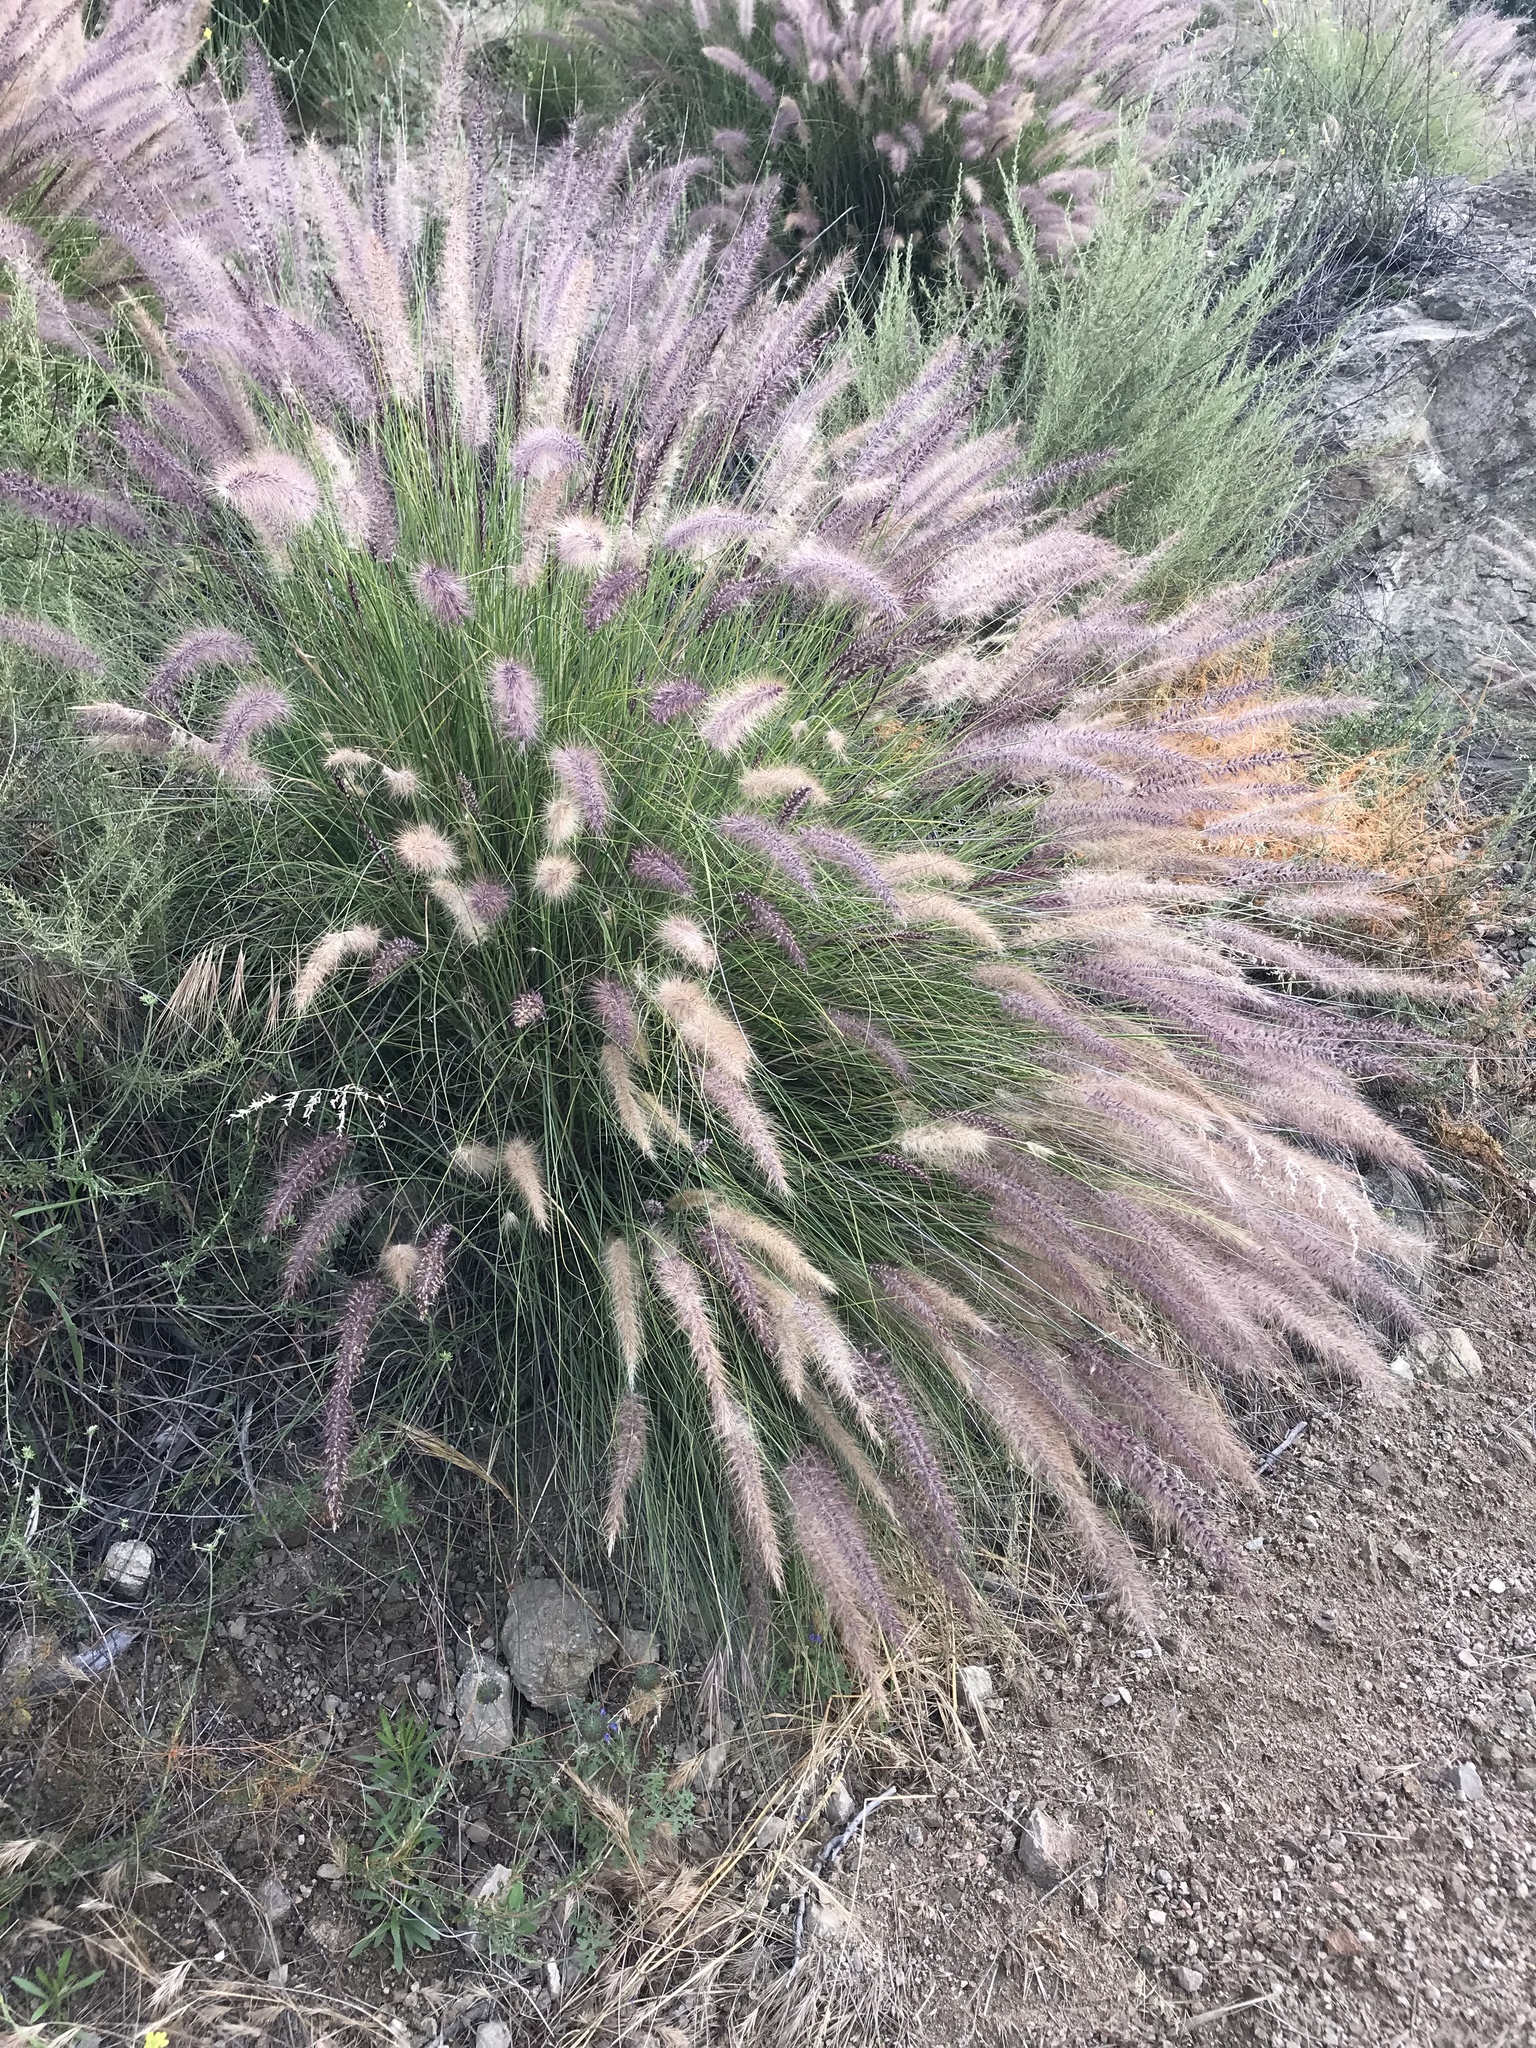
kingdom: Plantae
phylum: Tracheophyta
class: Liliopsida
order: Poales
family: Poaceae
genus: Cenchrus
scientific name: Cenchrus setaceus
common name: Crimson fountaingrass
